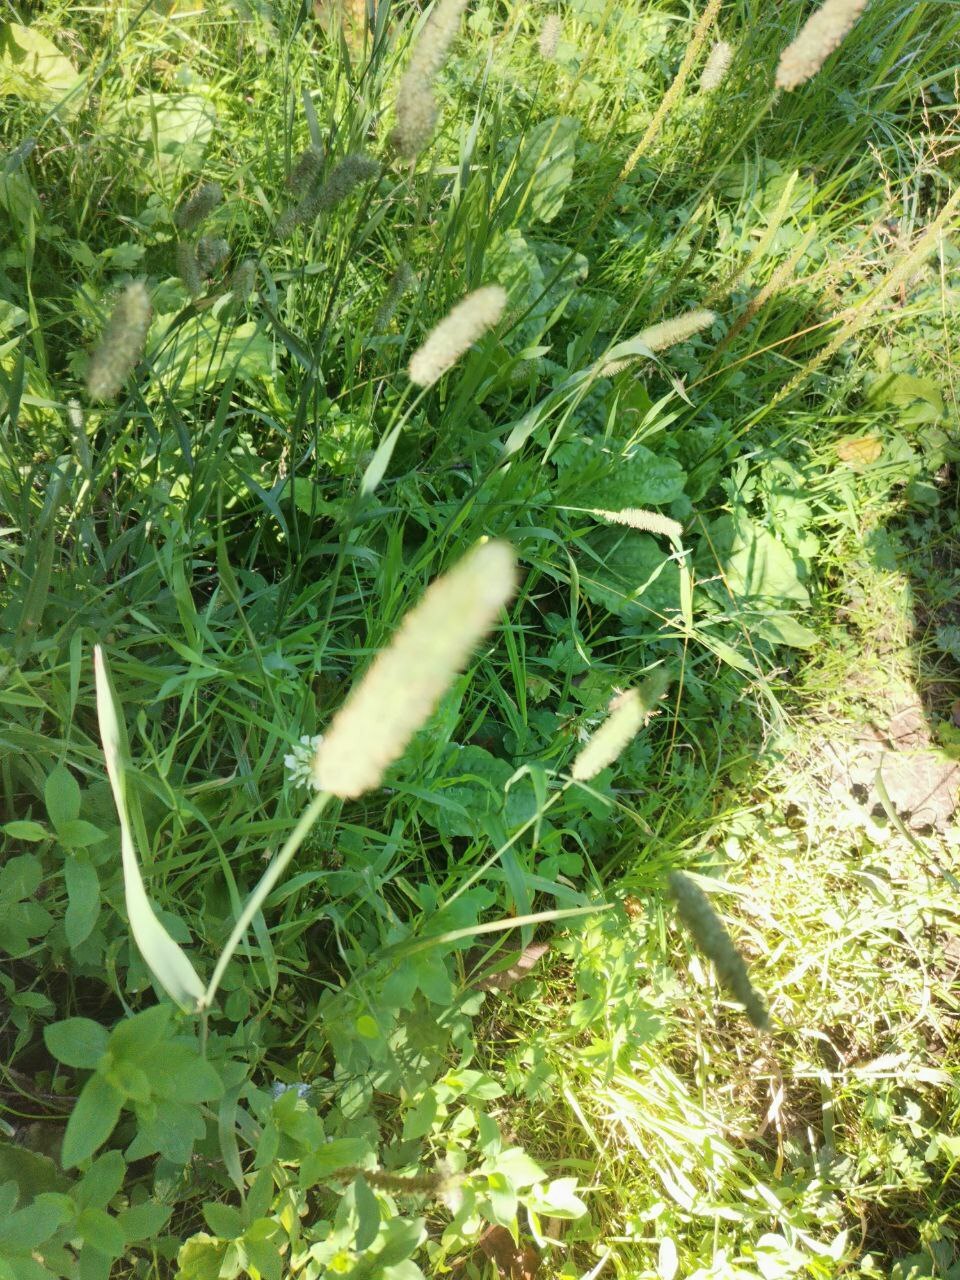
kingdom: Plantae
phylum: Tracheophyta
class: Liliopsida
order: Poales
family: Poaceae
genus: Phleum
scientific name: Phleum pratense
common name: Timothy grass
